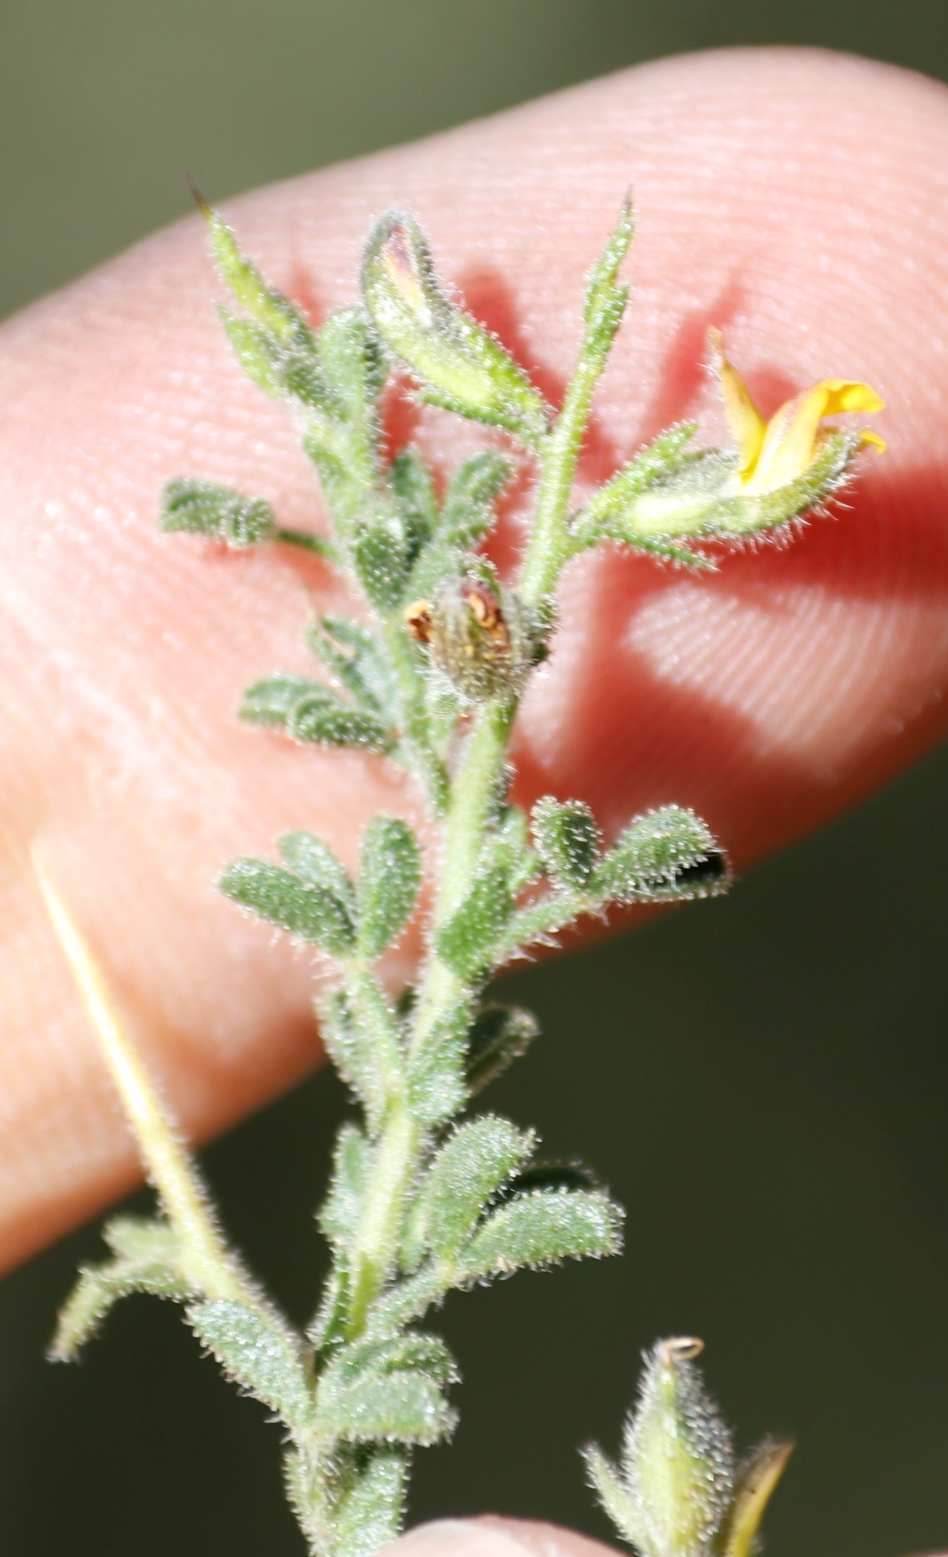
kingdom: Plantae
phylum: Tracheophyta
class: Magnoliopsida
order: Fabales
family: Fabaceae
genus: Melolobium
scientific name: Melolobium microphyllum
